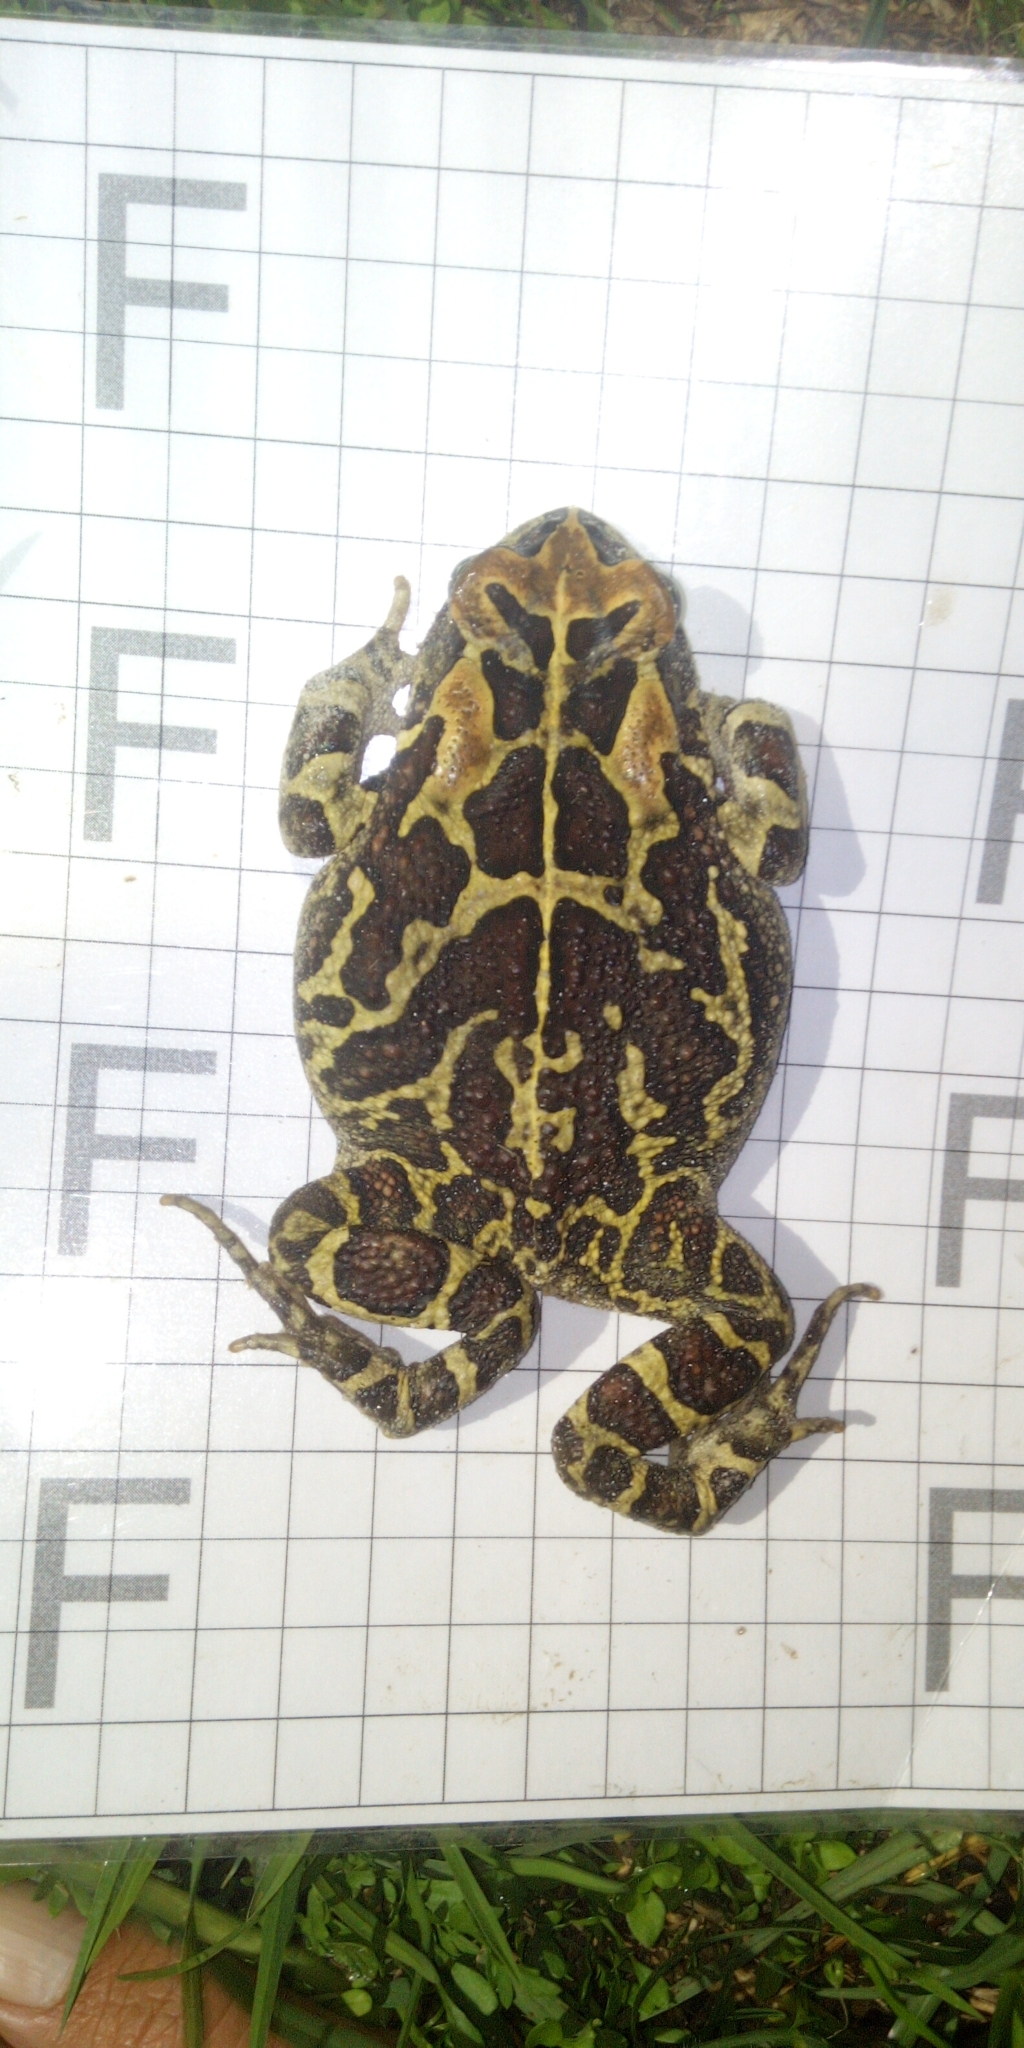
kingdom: Animalia
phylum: Chordata
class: Amphibia
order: Anura
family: Bufonidae
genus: Sclerophrys
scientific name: Sclerophrys pantherina
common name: Panther toad
